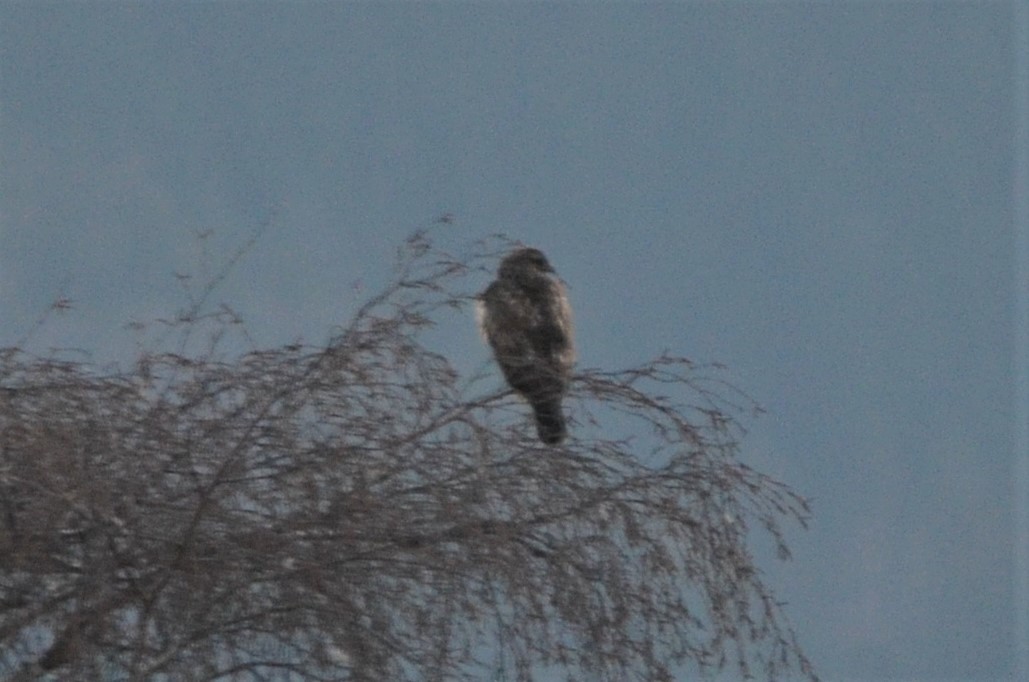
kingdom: Animalia
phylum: Chordata
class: Aves
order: Accipitriformes
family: Accipitridae
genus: Buteo
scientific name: Buteo buteo
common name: Common buzzard
